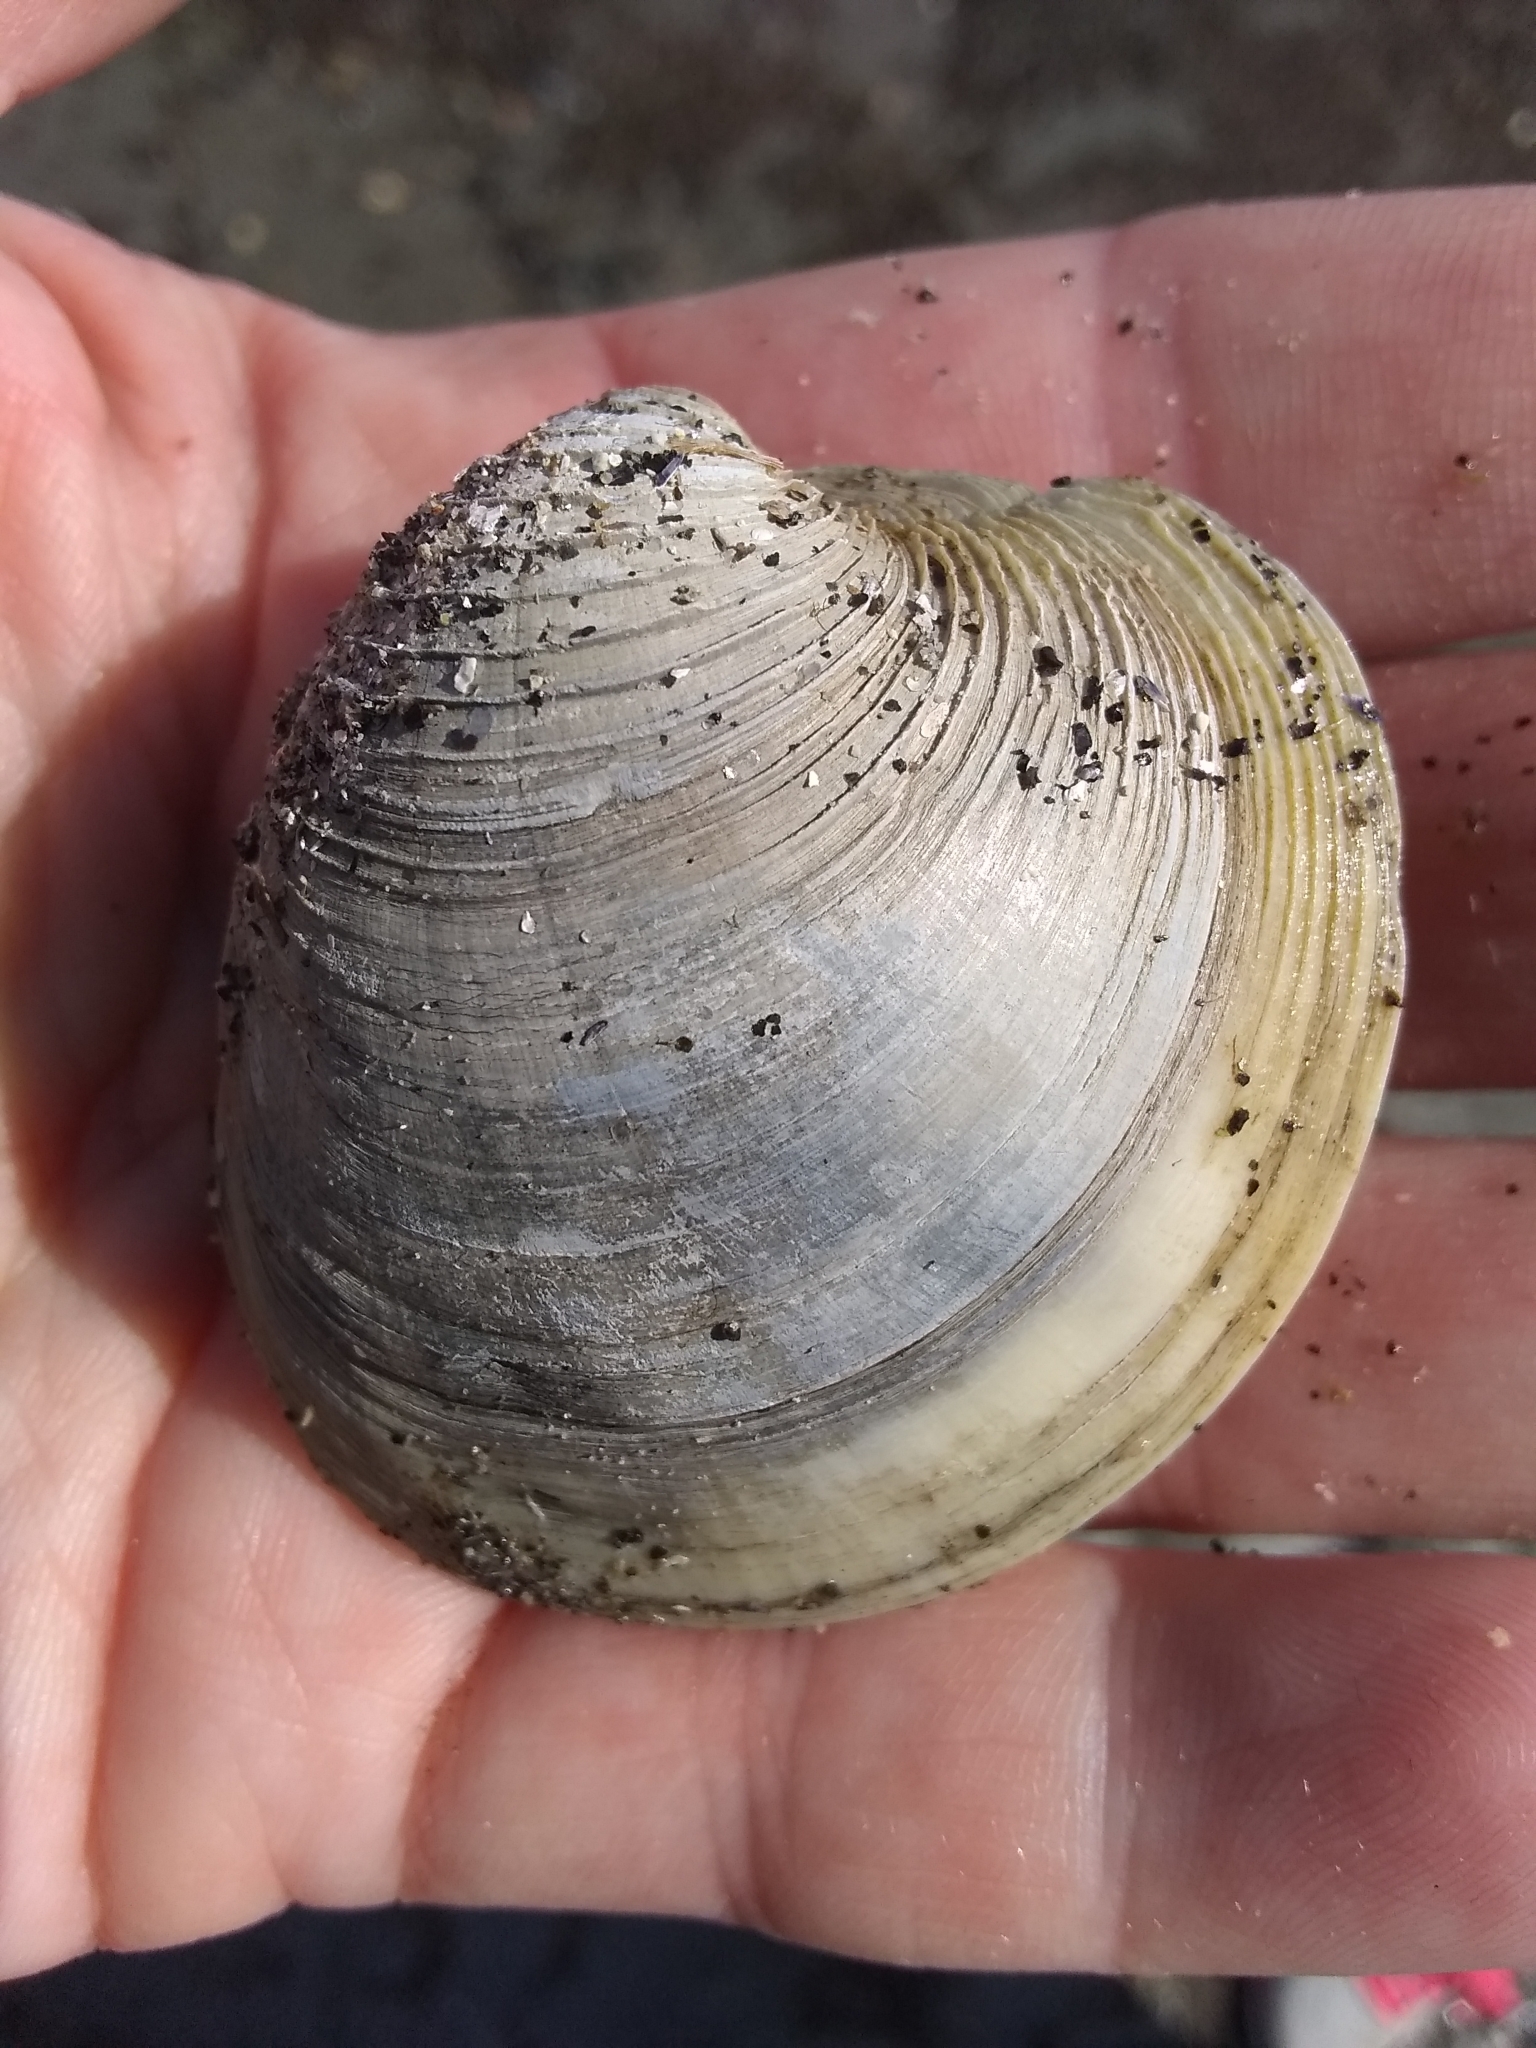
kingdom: Animalia
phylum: Mollusca
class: Bivalvia
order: Venerida
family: Veneridae
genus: Mercenaria
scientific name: Mercenaria mercenaria
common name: American hard-shelled clam
